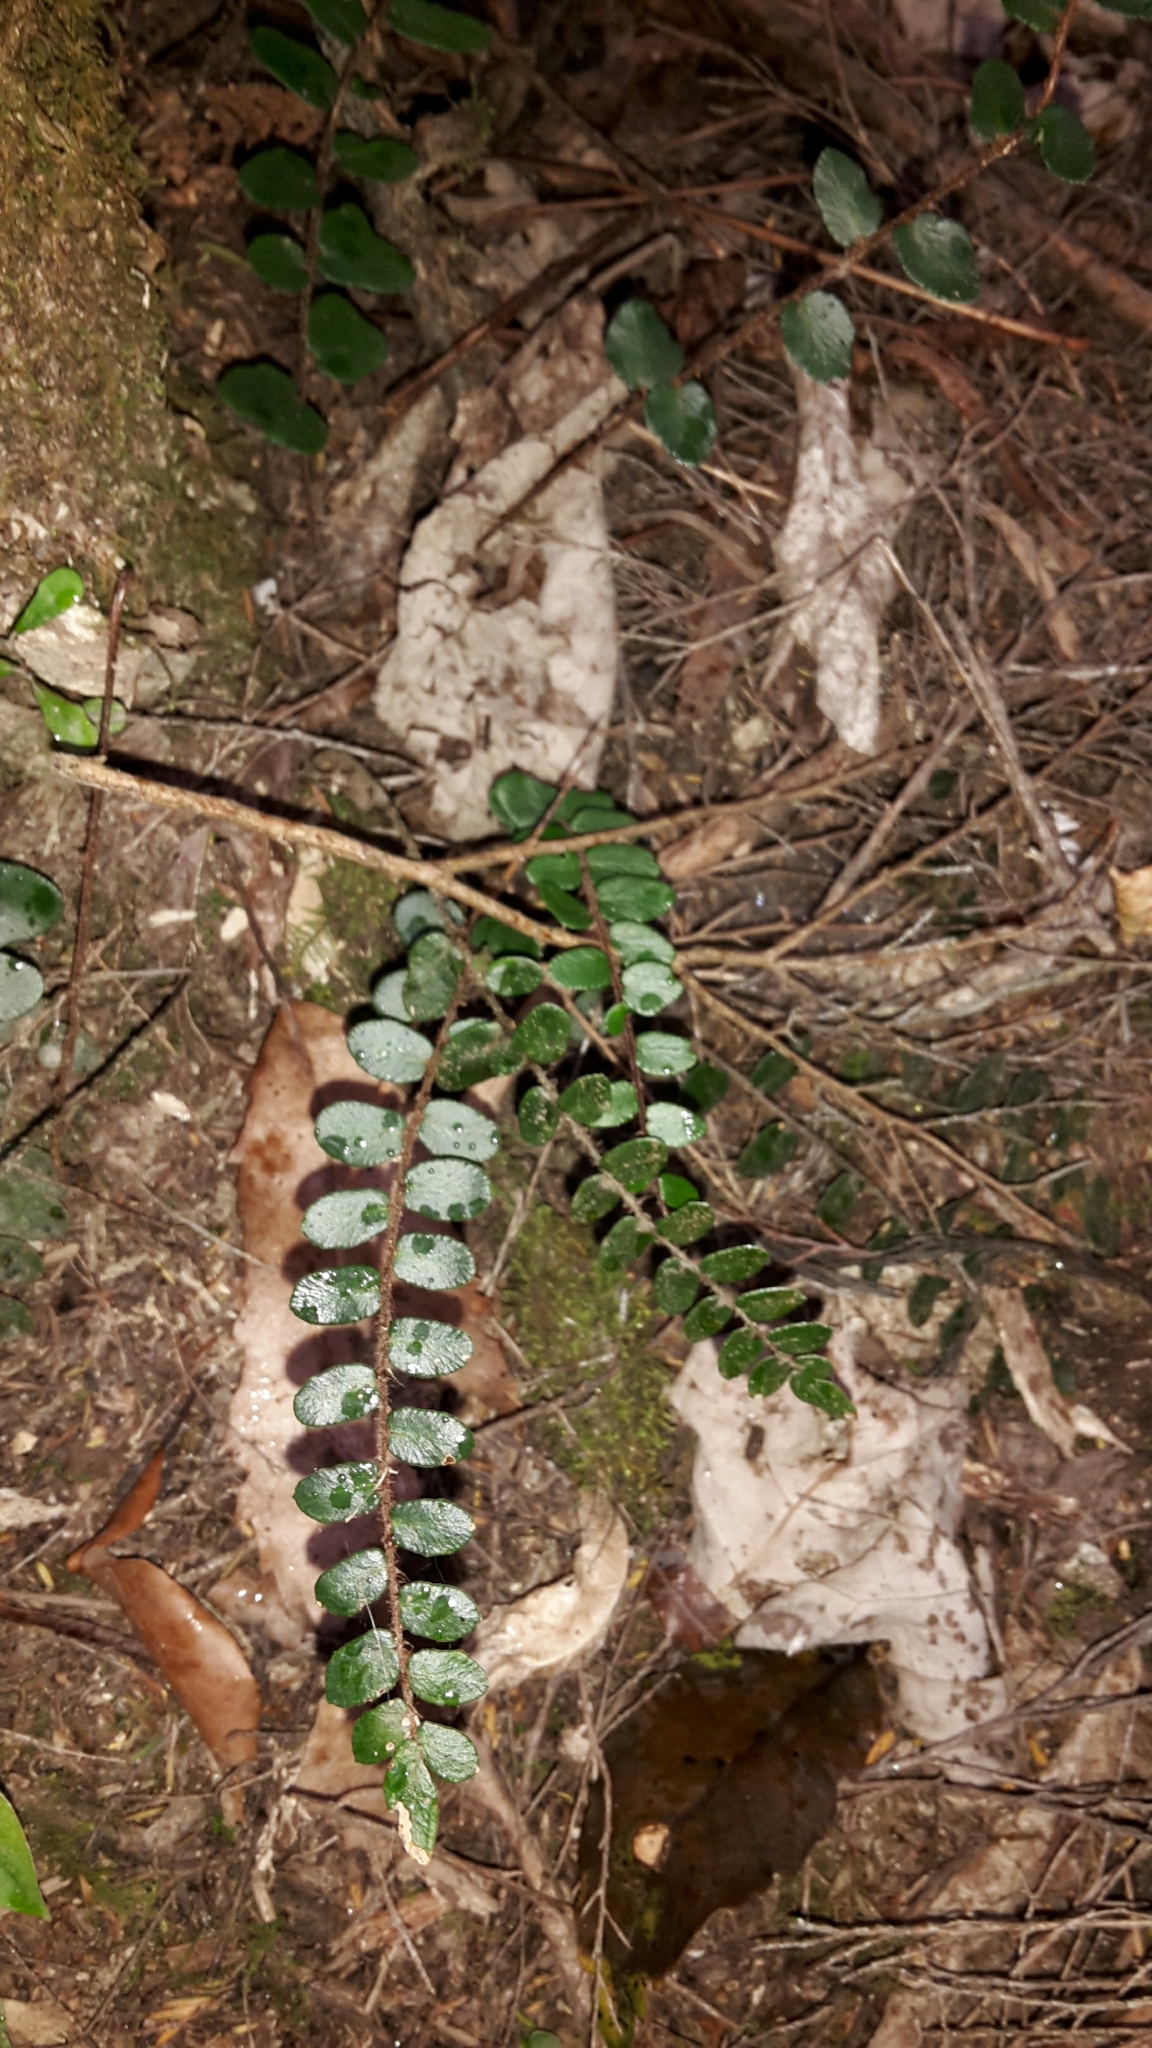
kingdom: Plantae
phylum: Tracheophyta
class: Polypodiopsida
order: Polypodiales
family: Pteridaceae
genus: Pellaea
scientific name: Pellaea rotundifolia
